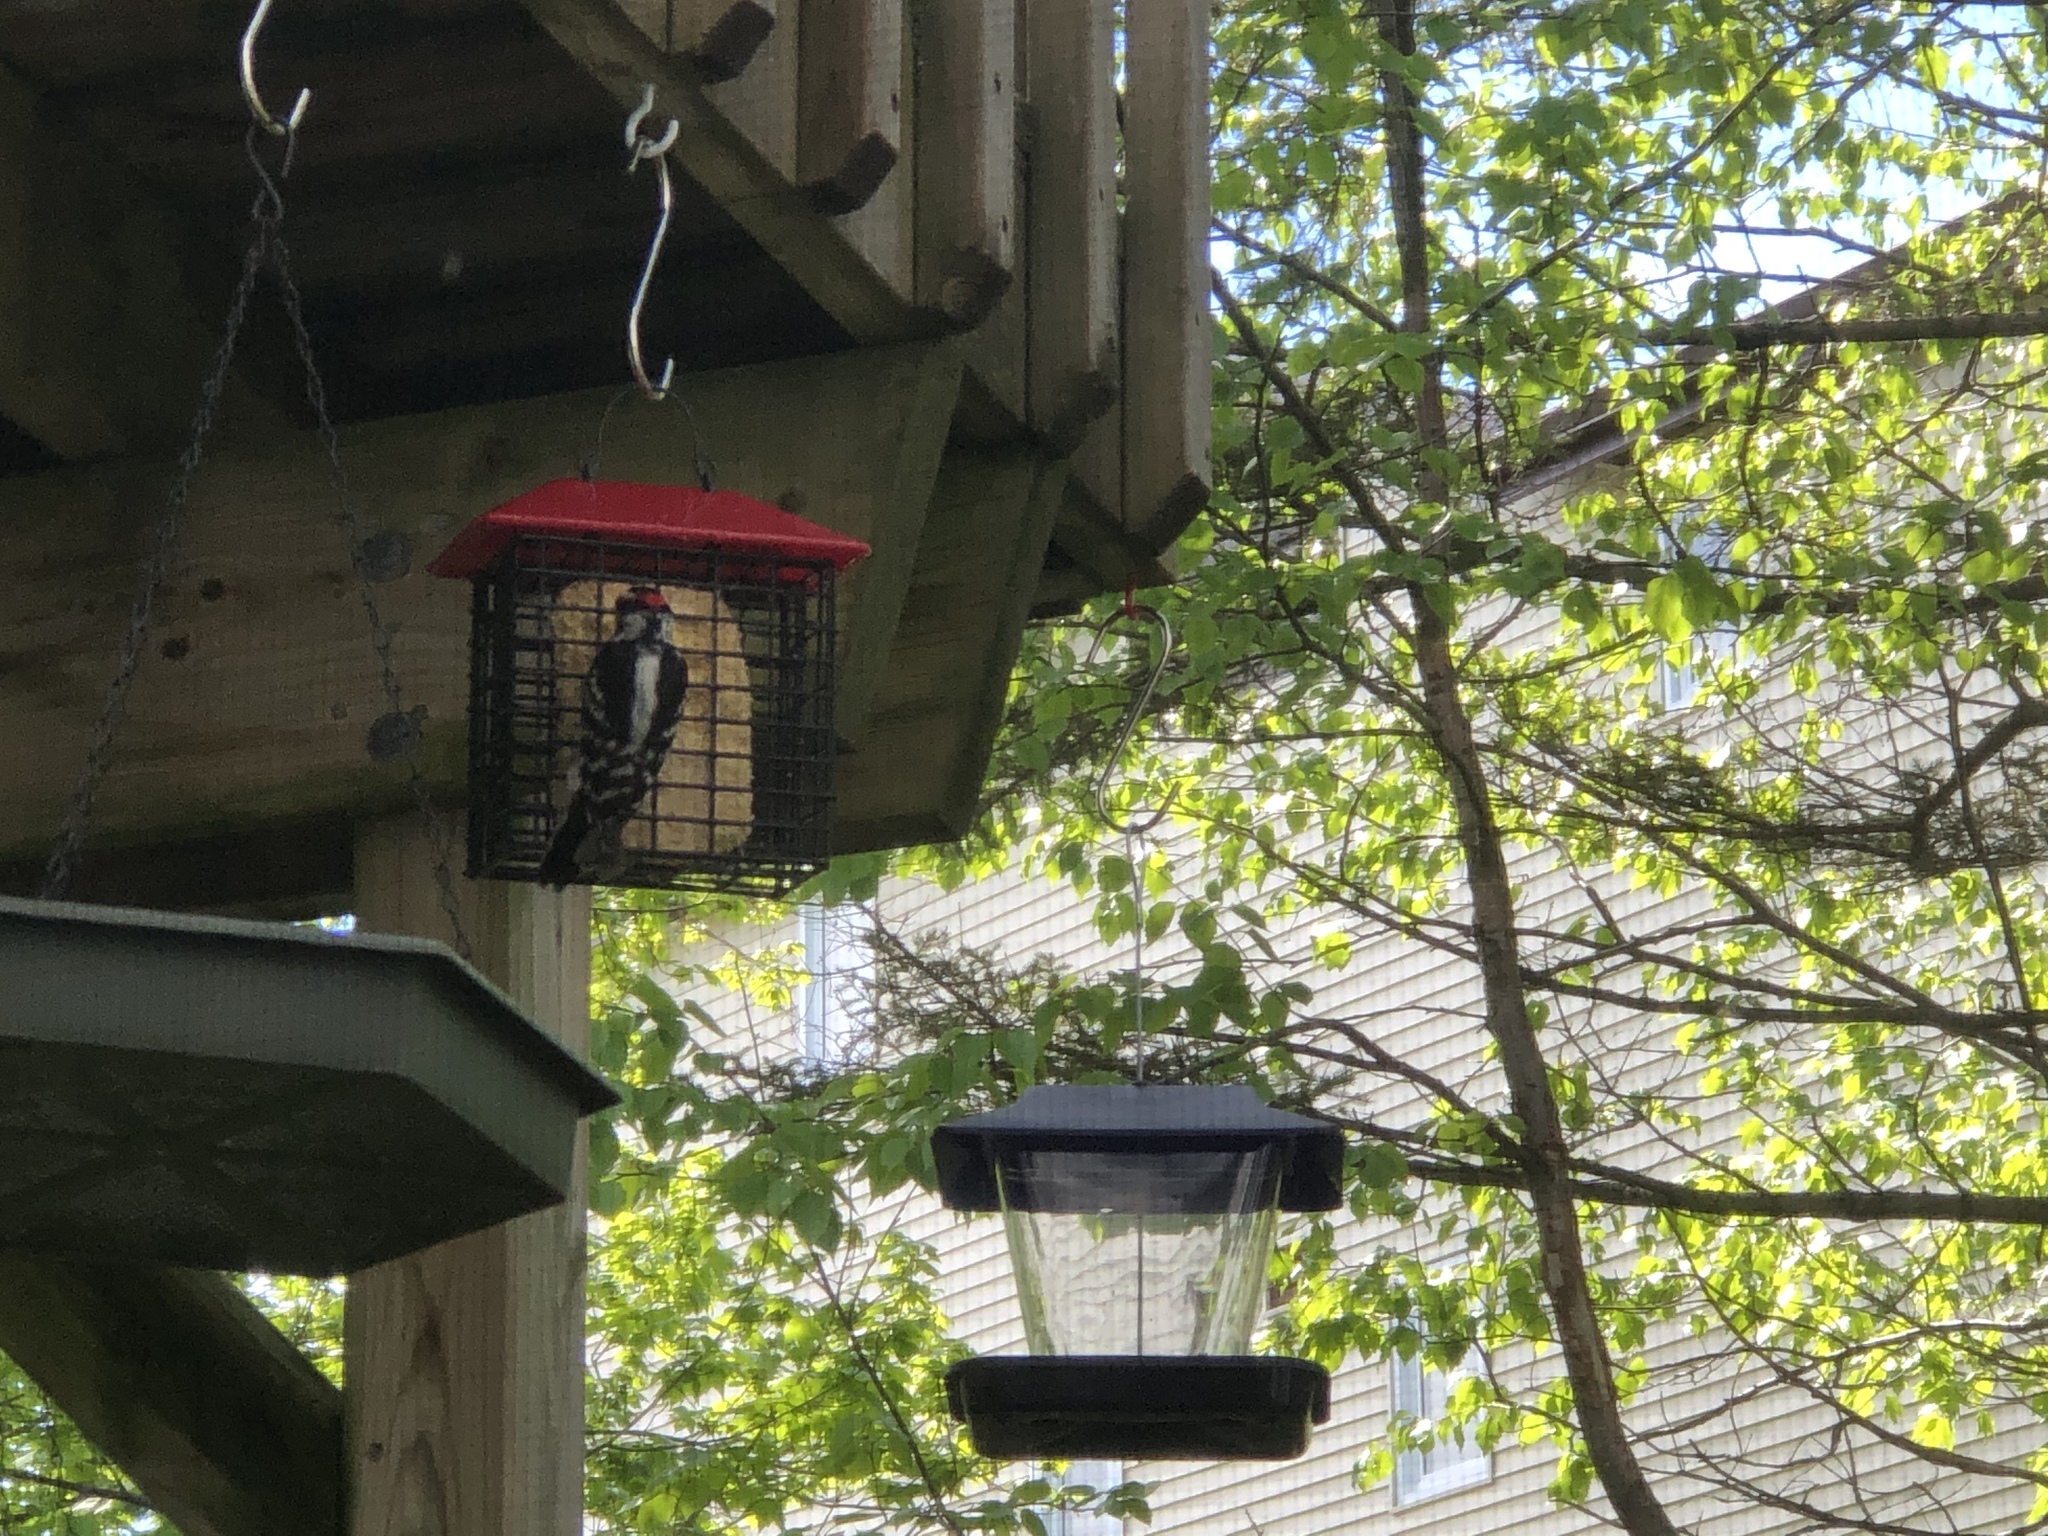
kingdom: Animalia
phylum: Chordata
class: Aves
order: Piciformes
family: Picidae
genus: Dryobates
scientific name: Dryobates pubescens
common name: Downy woodpecker
